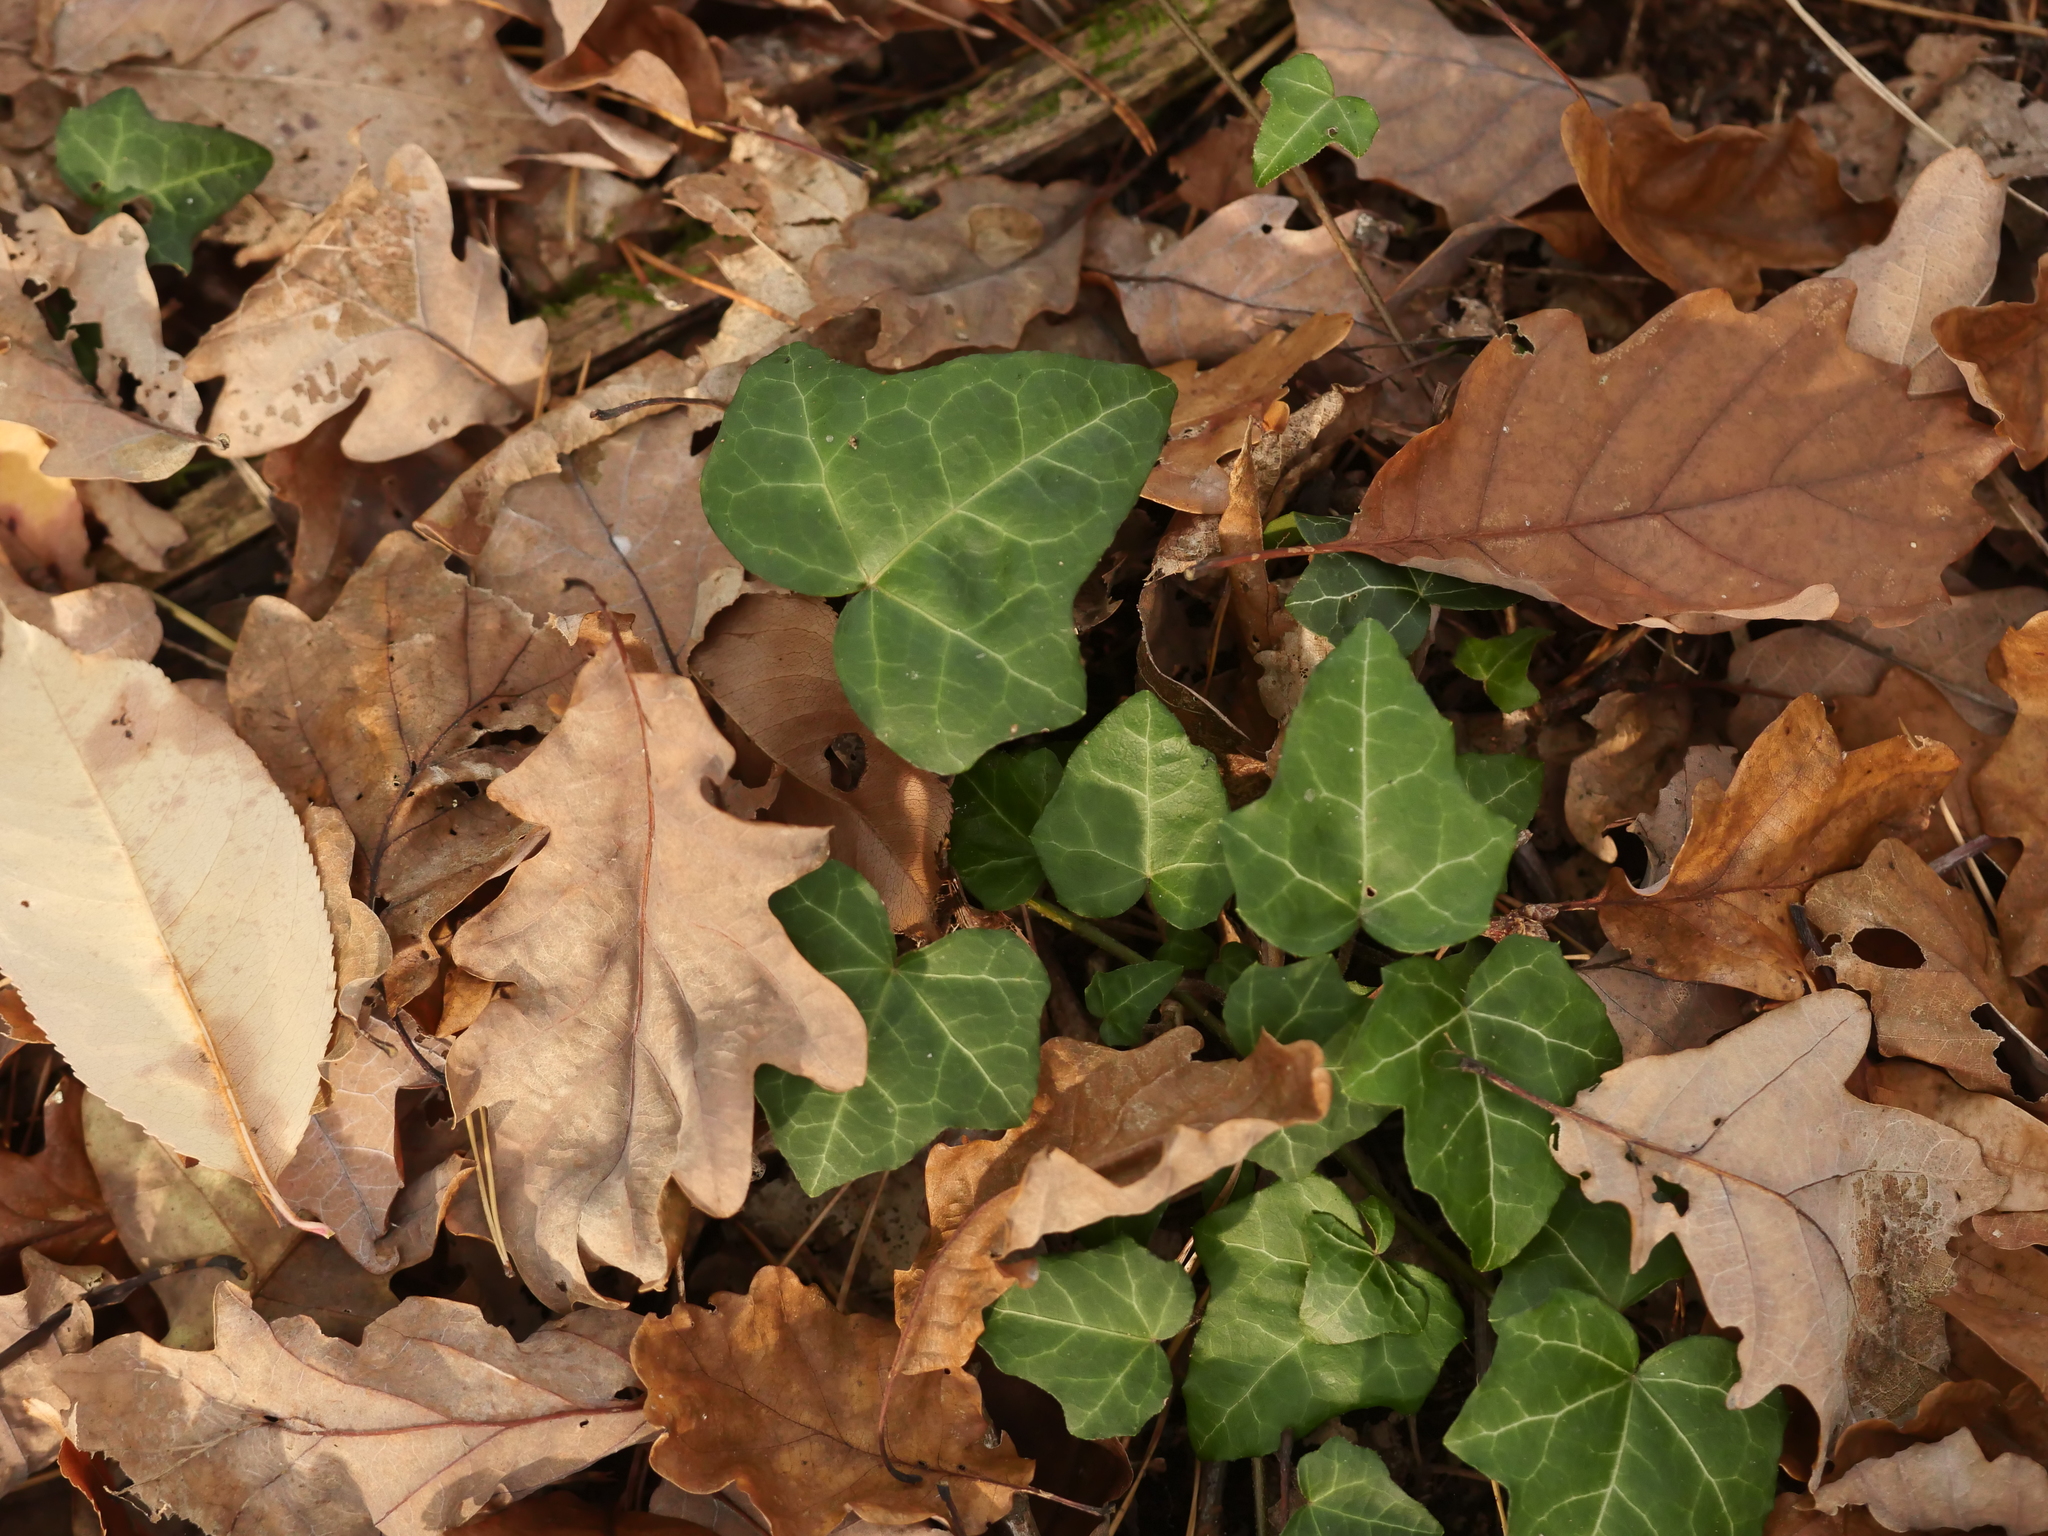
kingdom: Plantae
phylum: Tracheophyta
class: Magnoliopsida
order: Apiales
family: Araliaceae
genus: Hedera
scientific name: Hedera helix
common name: Ivy
